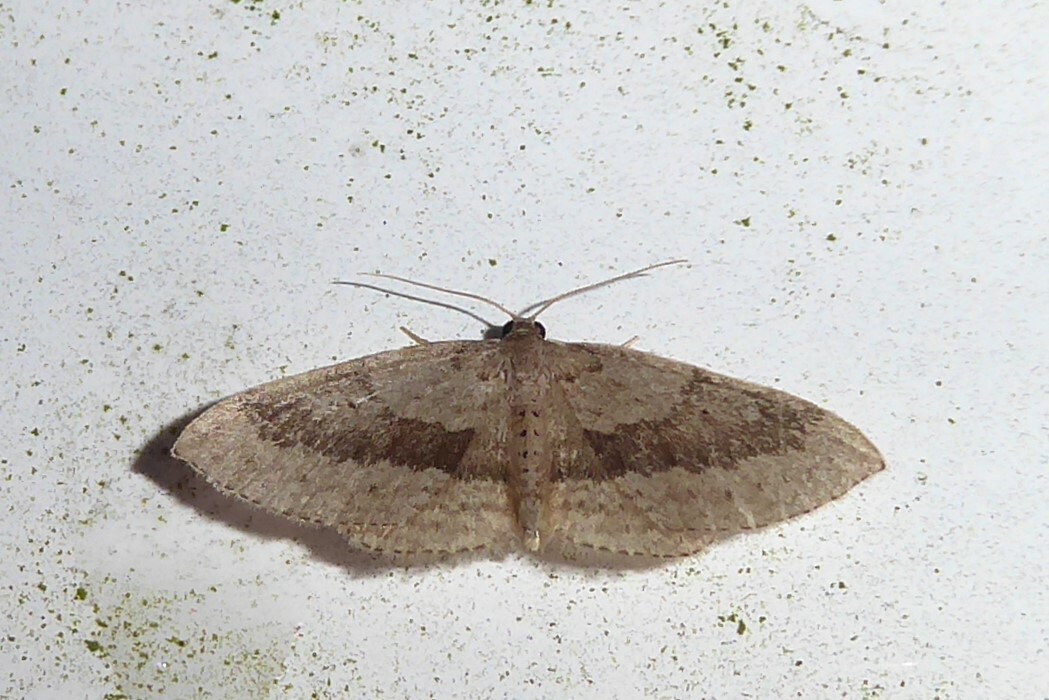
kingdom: Animalia
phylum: Arthropoda
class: Insecta
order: Lepidoptera
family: Geometridae
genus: Poecilasthena
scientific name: Poecilasthena schistaria
